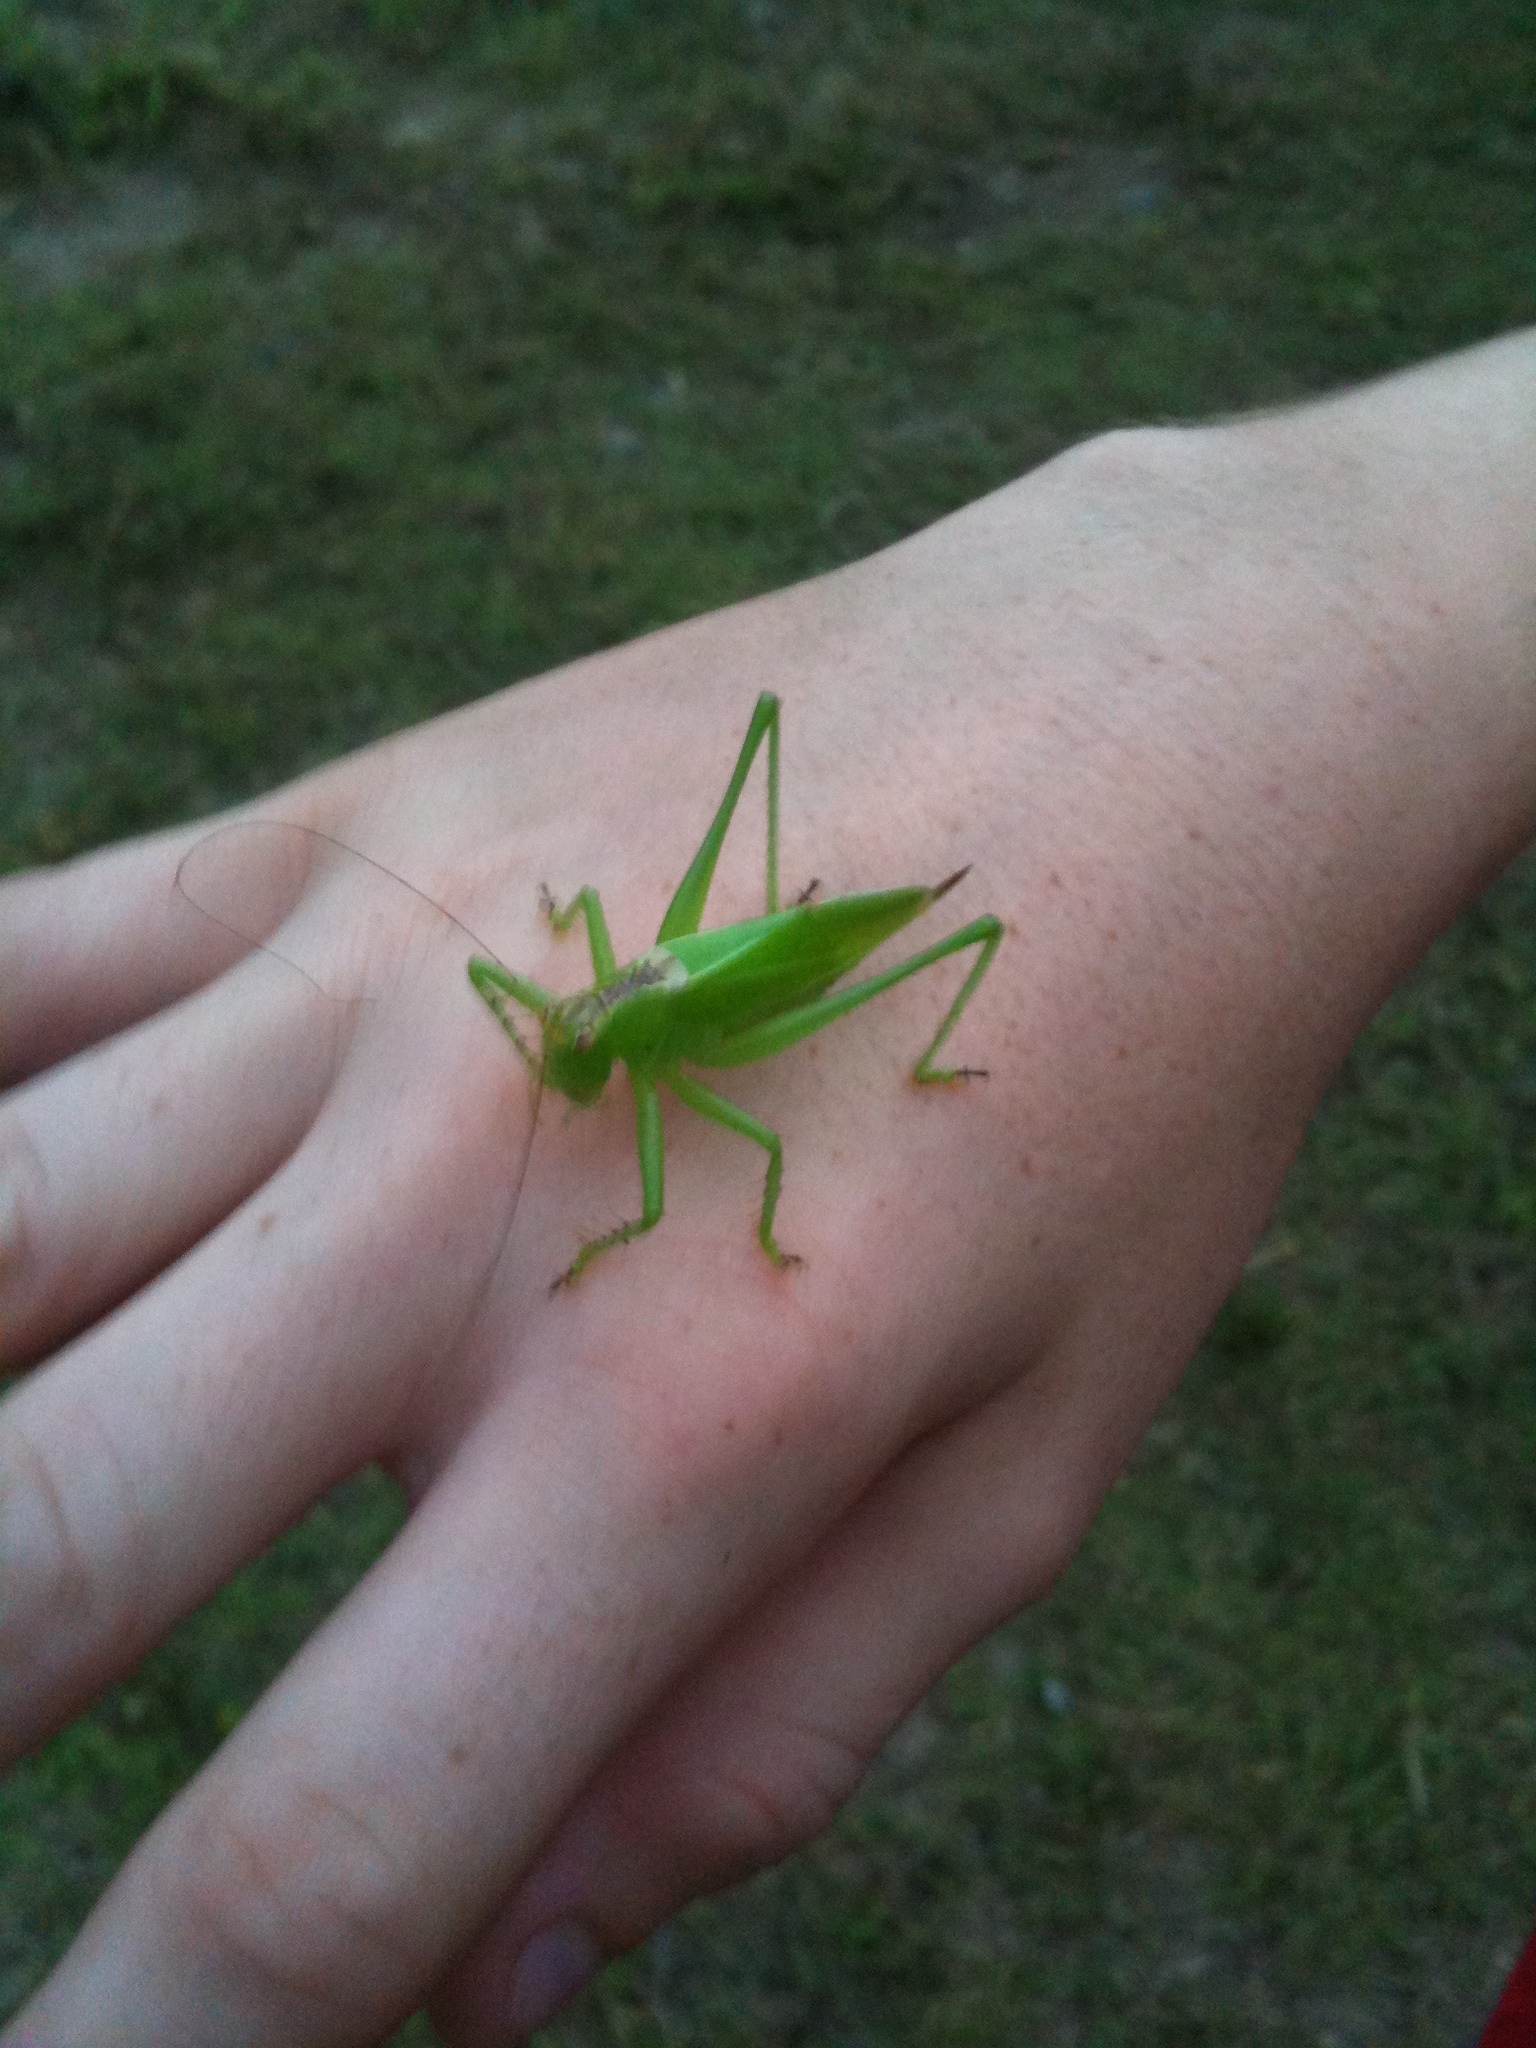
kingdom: Animalia
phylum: Arthropoda
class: Insecta
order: Orthoptera
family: Tettigoniidae
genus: Hexacentrus
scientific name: Hexacentrus mundurra
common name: Mundurra balloon-winged katydid
